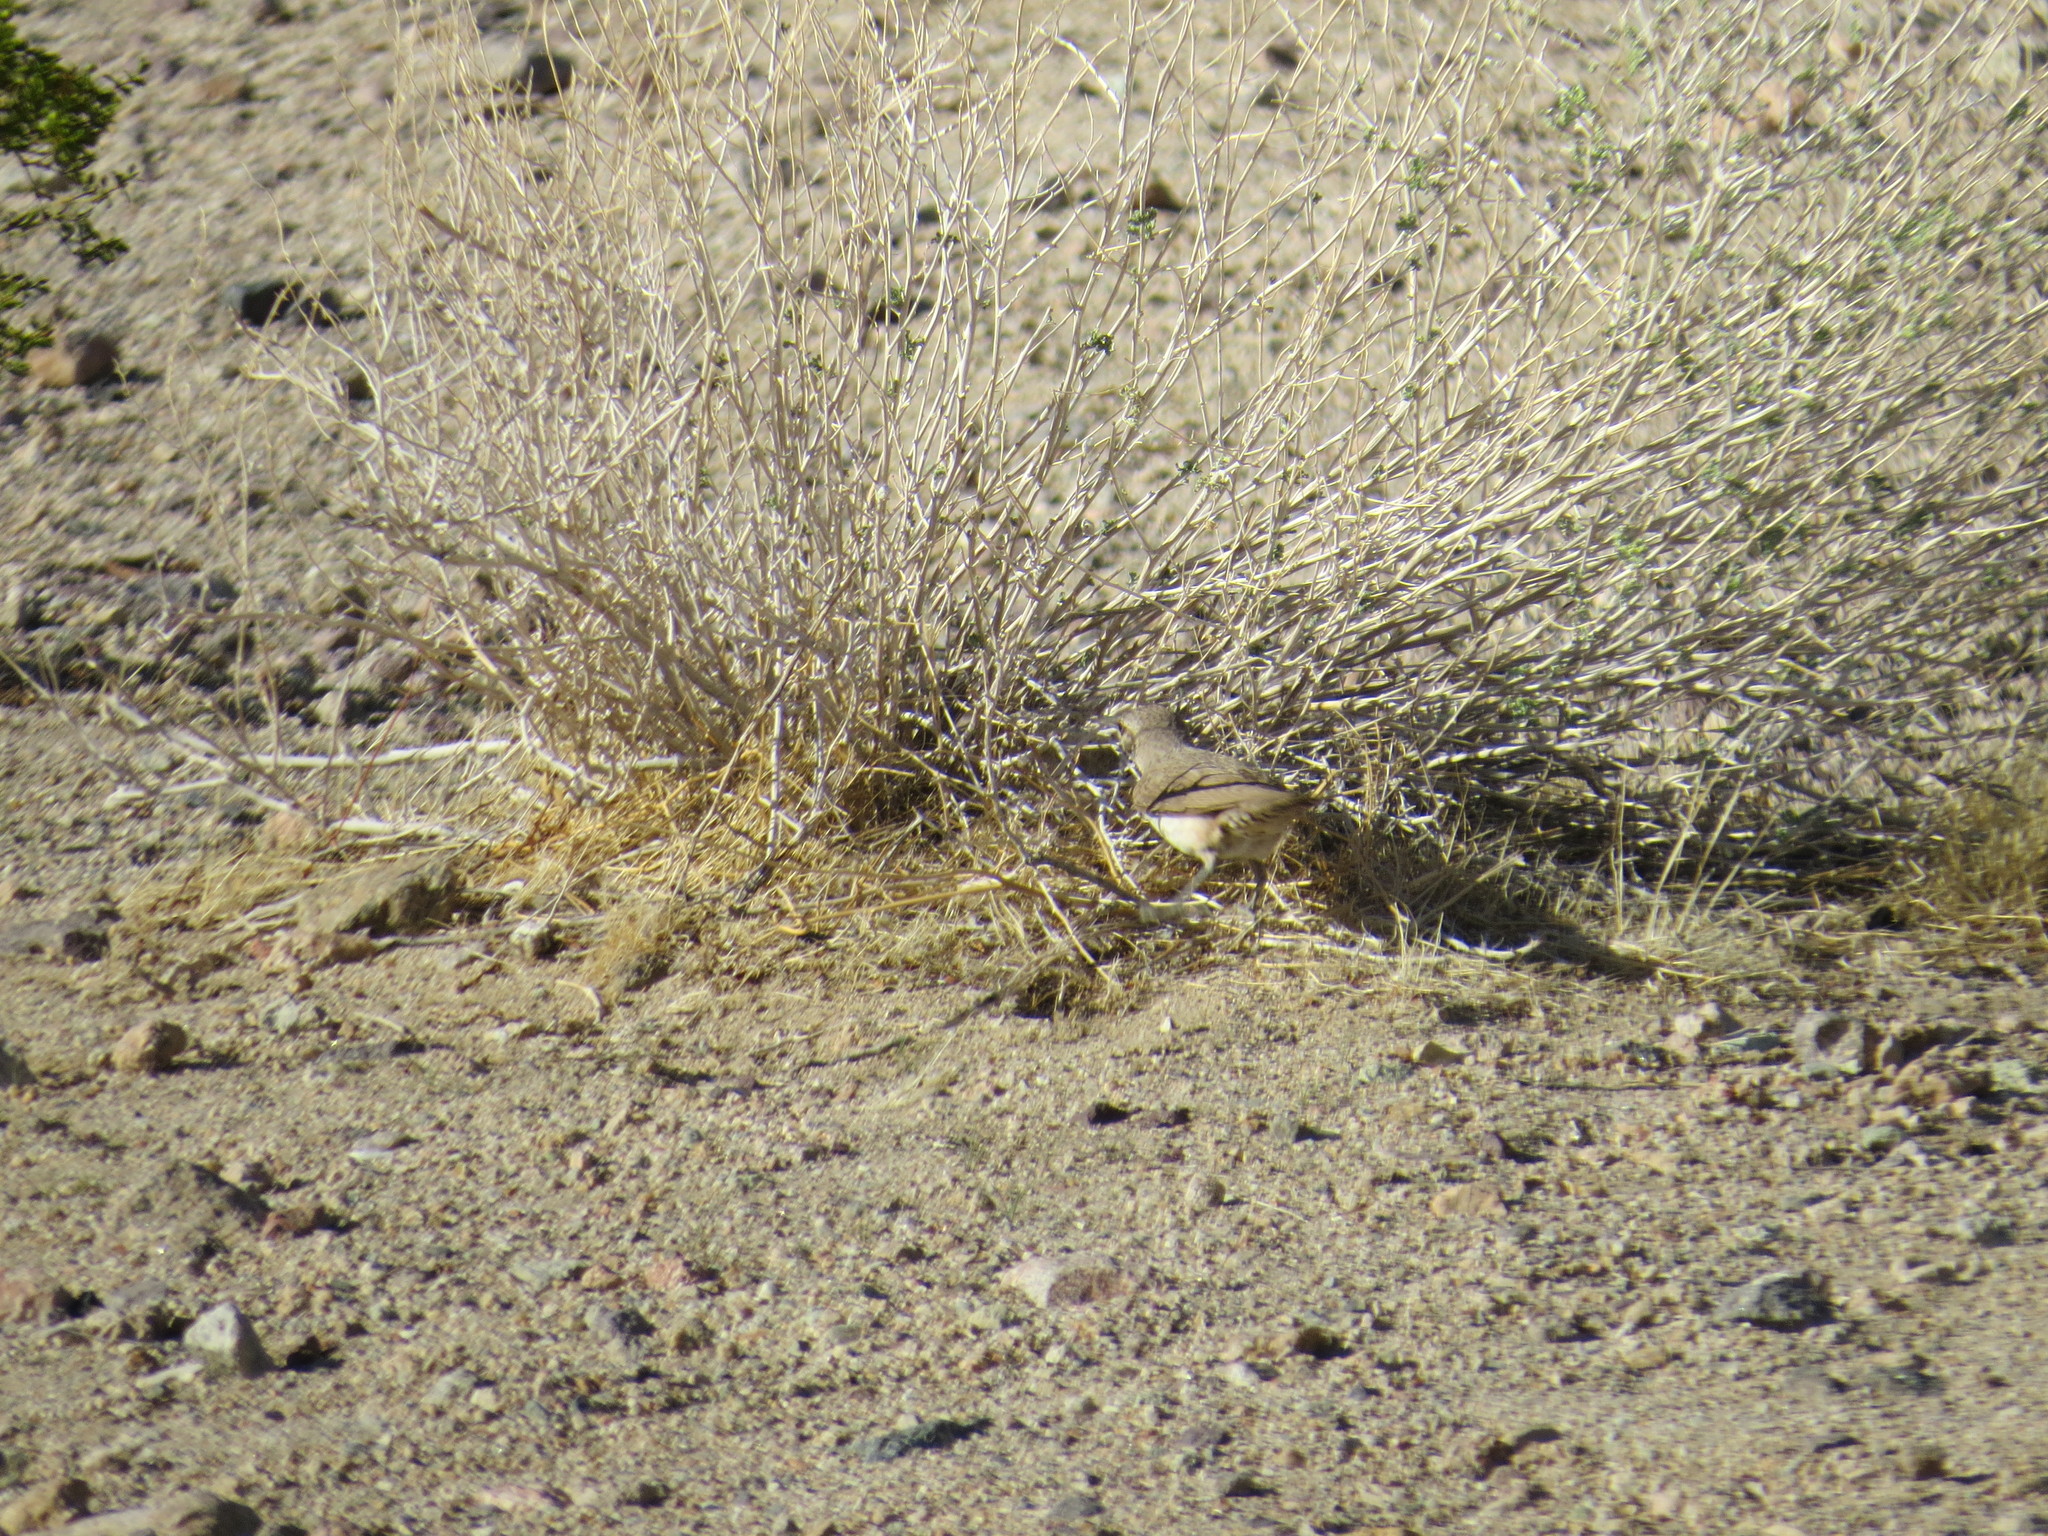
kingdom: Animalia
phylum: Chordata
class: Aves
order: Passeriformes
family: Troglodytidae
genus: Salpinctes
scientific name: Salpinctes obsoletus
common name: Rock wren
